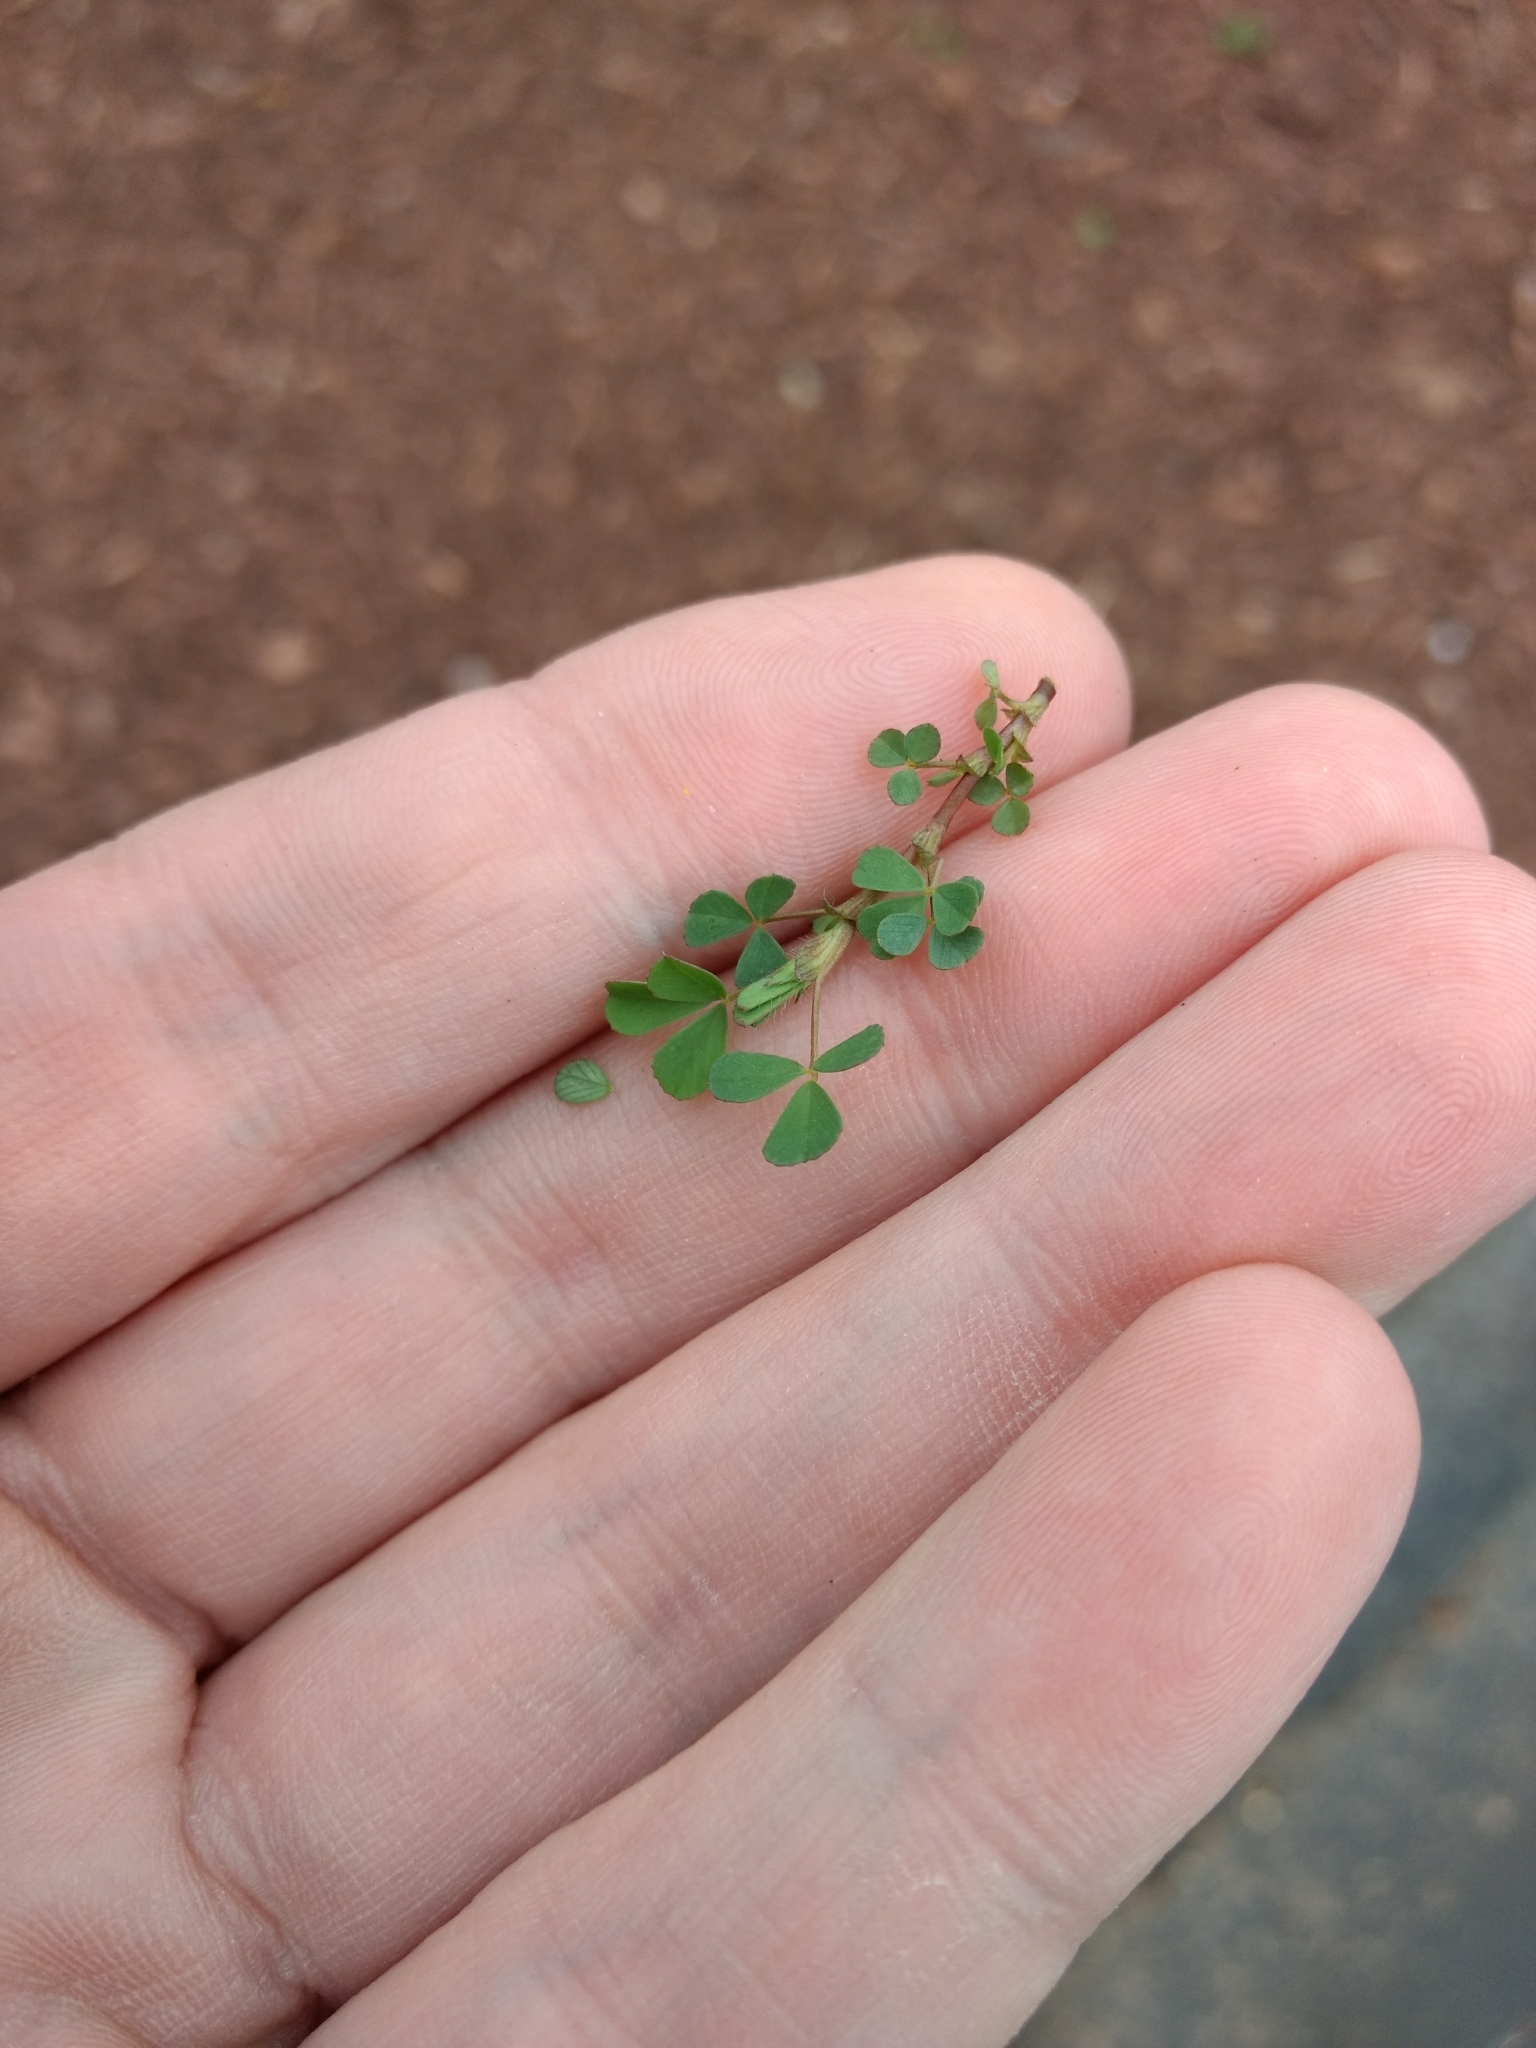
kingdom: Plantae
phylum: Tracheophyta
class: Magnoliopsida
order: Fabales
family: Fabaceae
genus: Medicago
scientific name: Medicago lupulina
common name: Black medick
